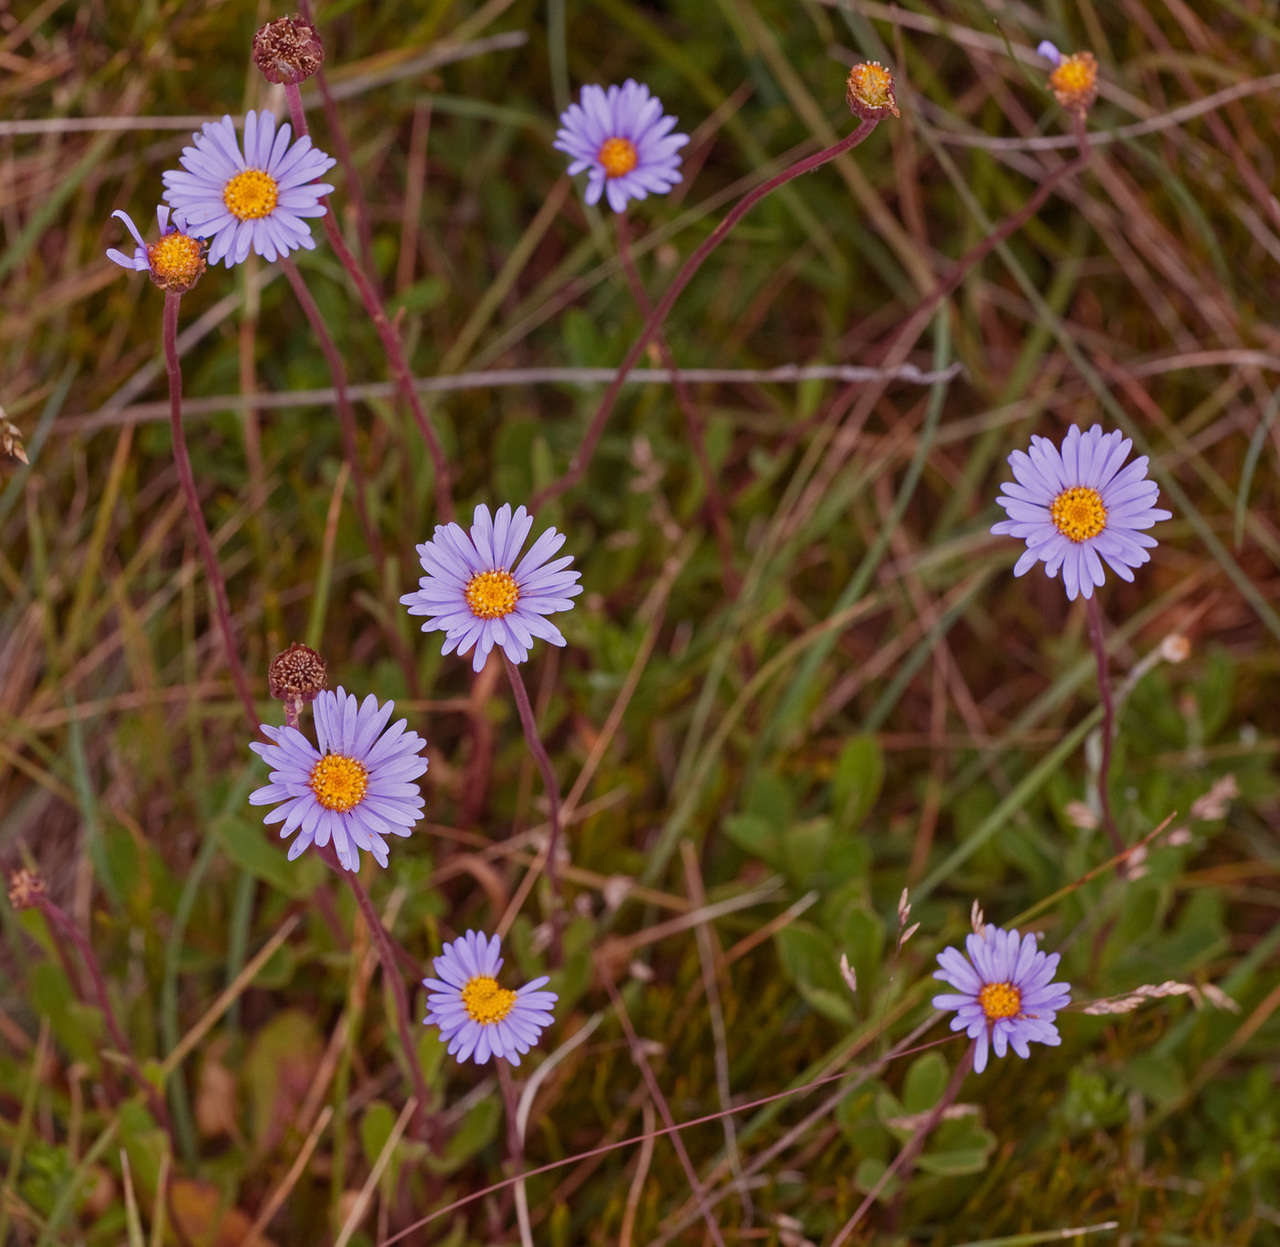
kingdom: Plantae
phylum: Tracheophyta
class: Magnoliopsida
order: Asterales
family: Asteraceae
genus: Brachyscome
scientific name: Brachyscome spathulata
